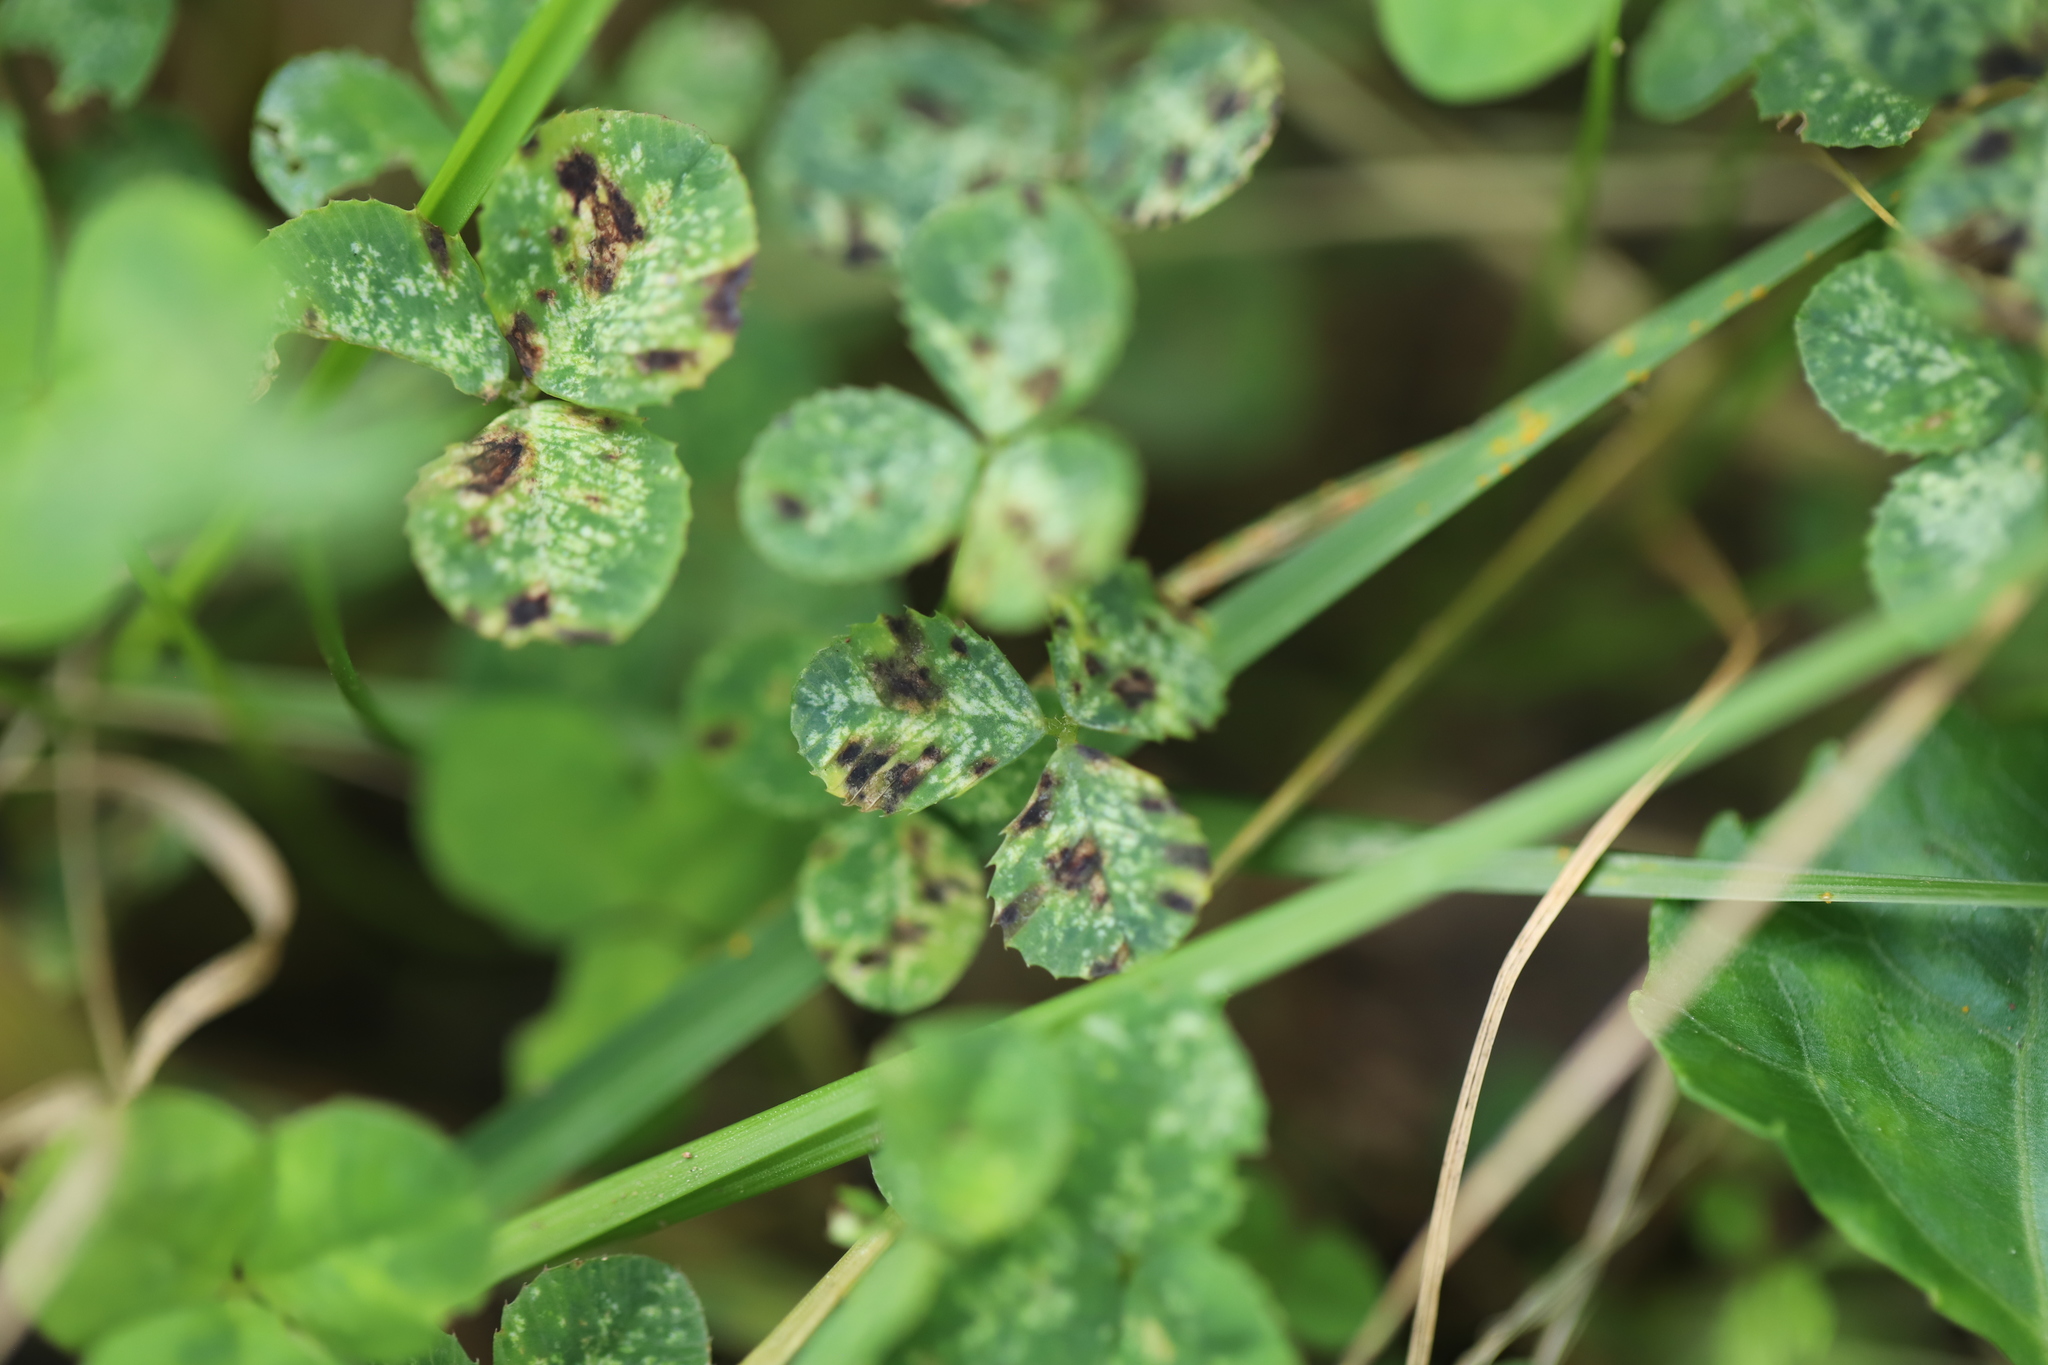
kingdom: Plantae
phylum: Tracheophyta
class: Magnoliopsida
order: Fabales
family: Fabaceae
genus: Trifolium
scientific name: Trifolium repens
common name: White clover
